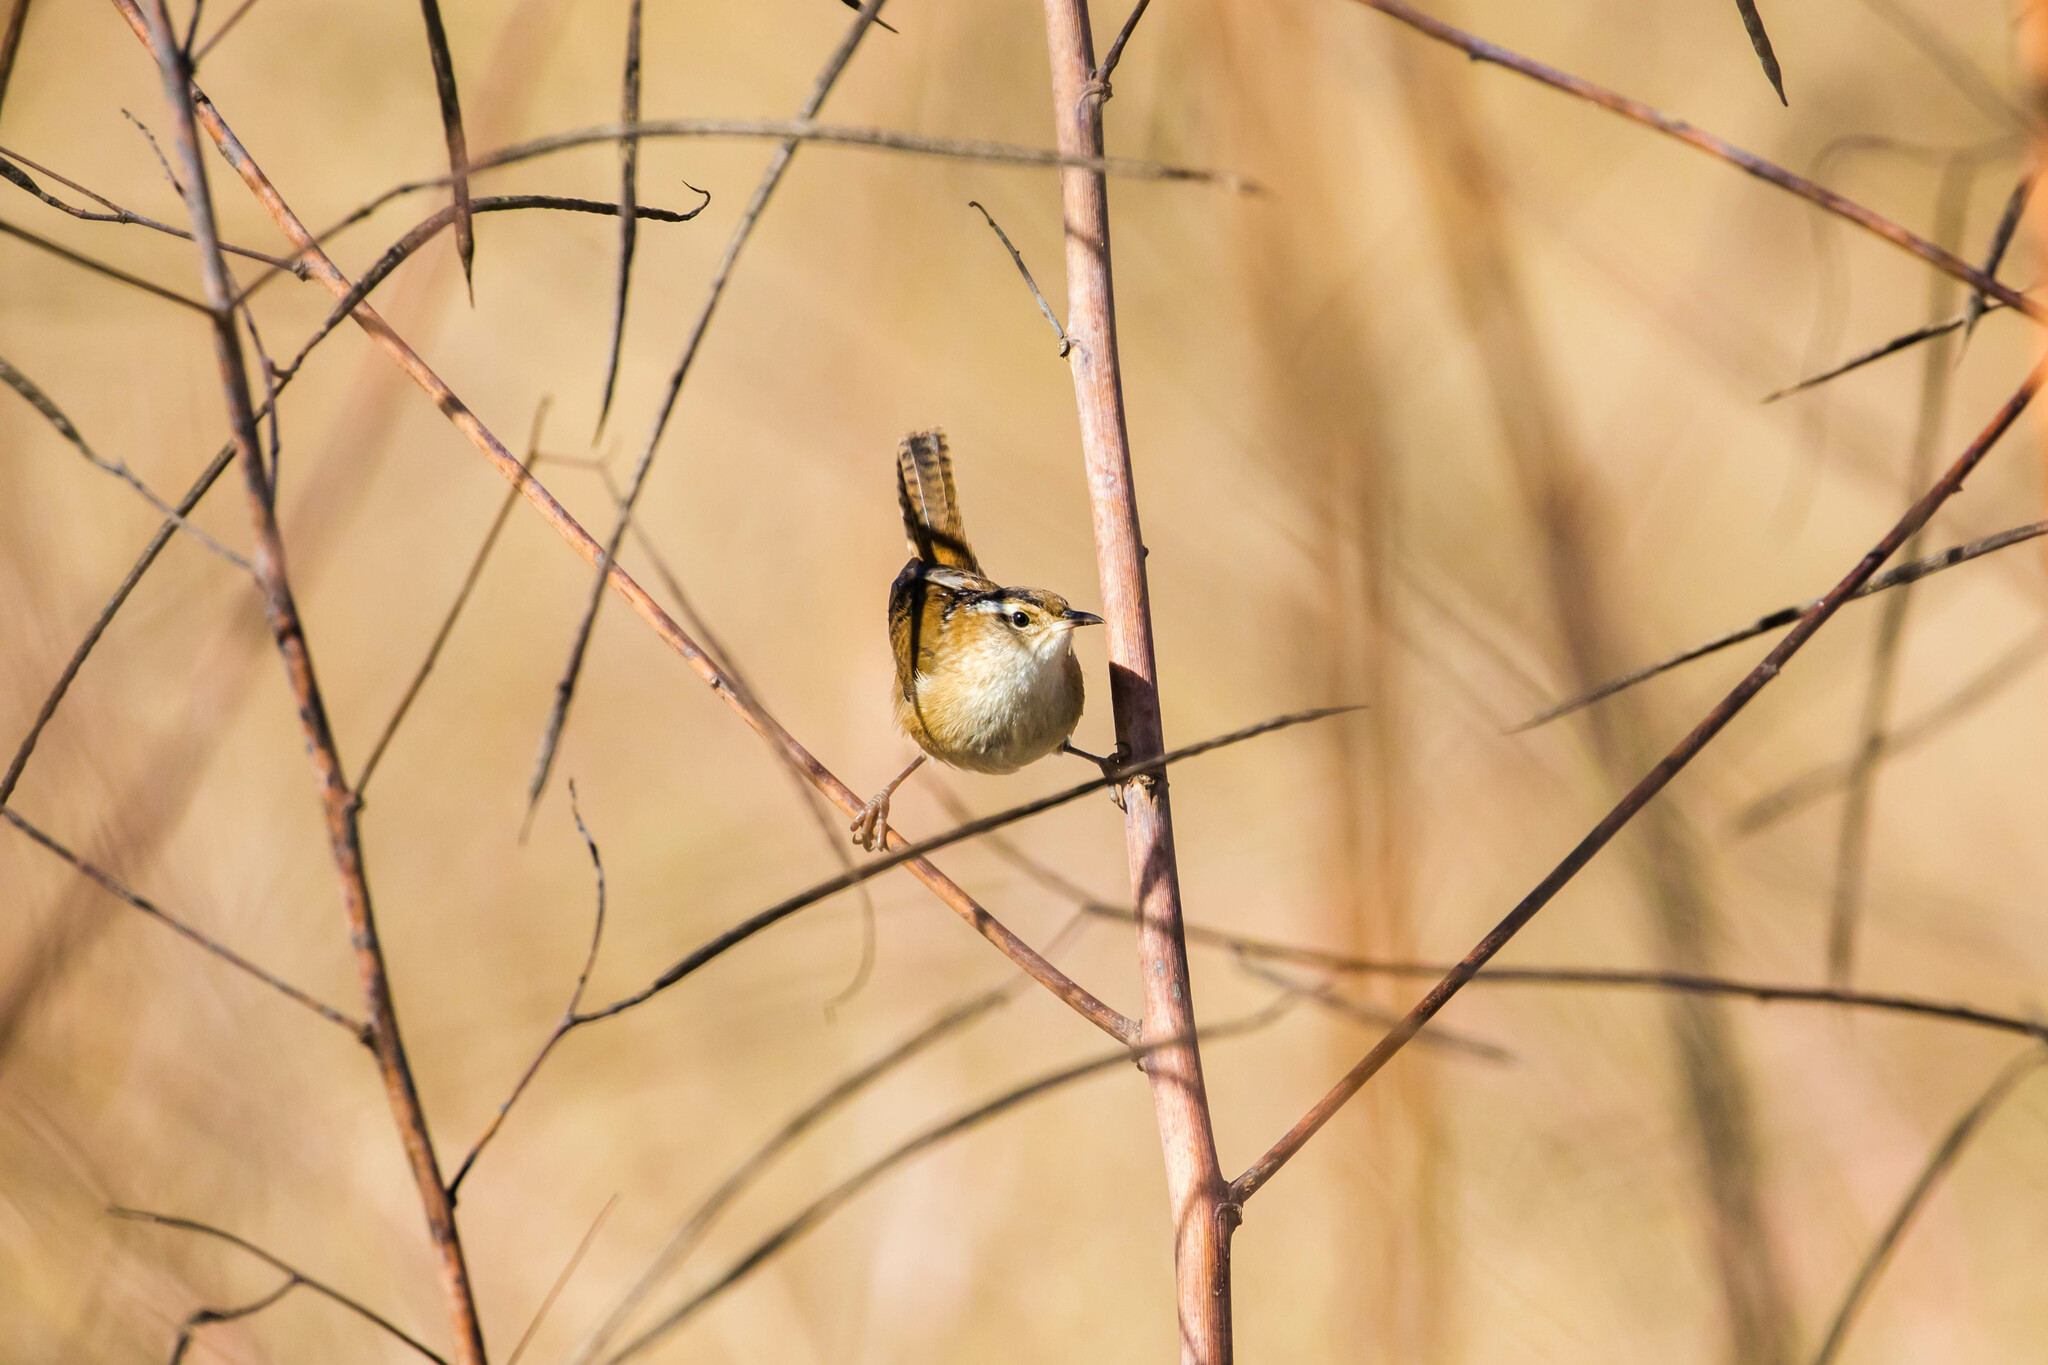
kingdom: Animalia
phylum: Chordata
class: Aves
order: Passeriformes
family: Troglodytidae
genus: Cistothorus
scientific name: Cistothorus palustris
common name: Marsh wren
